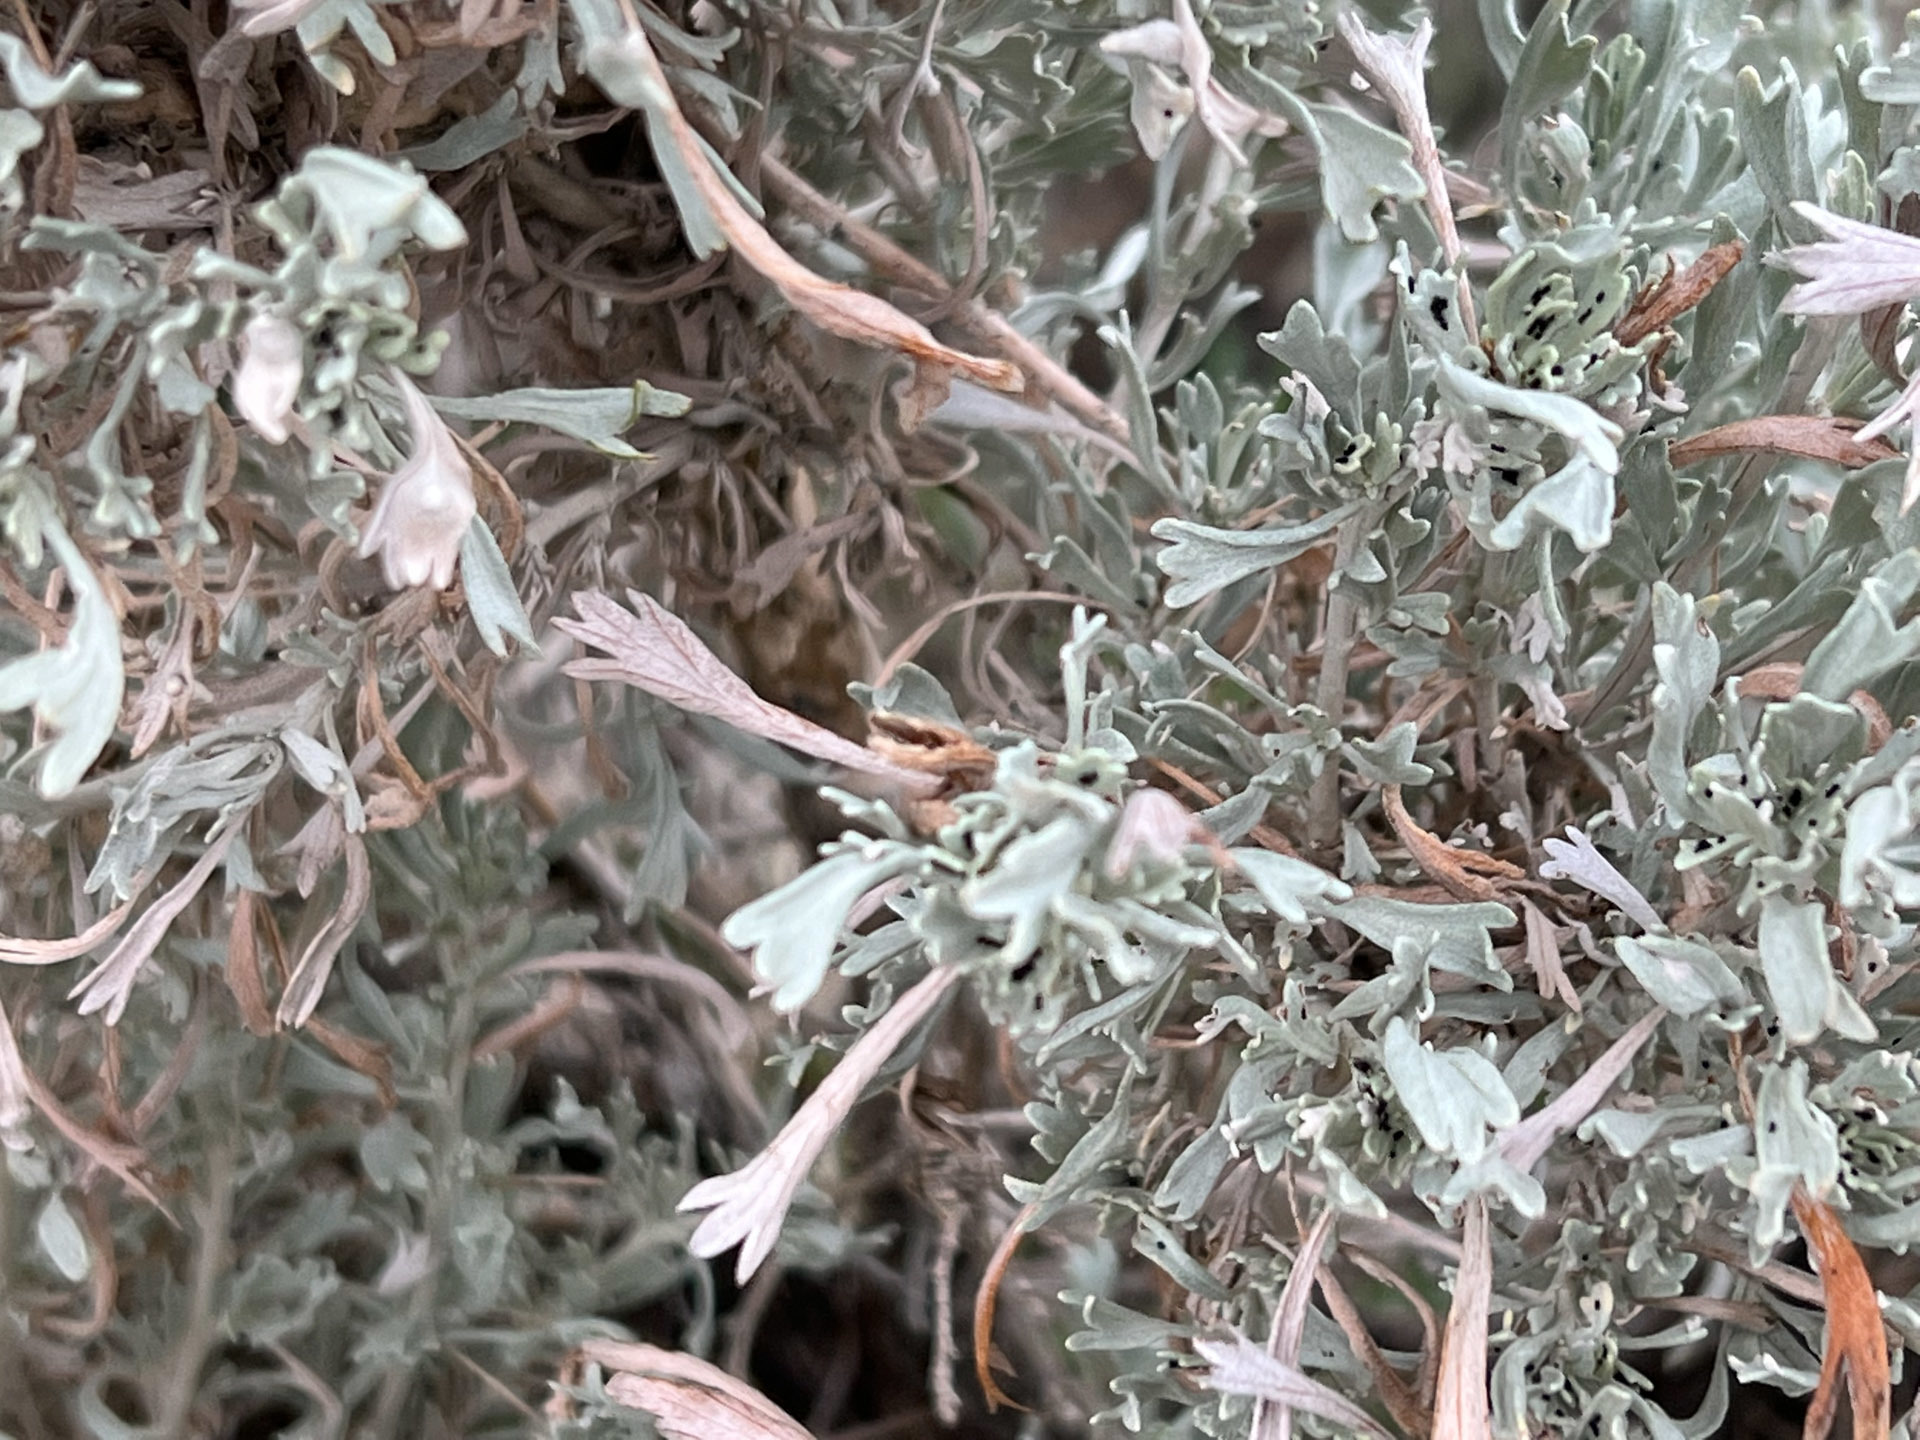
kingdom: Plantae
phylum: Tracheophyta
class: Magnoliopsida
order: Asterales
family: Asteraceae
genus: Artemisia
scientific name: Artemisia tridentata
